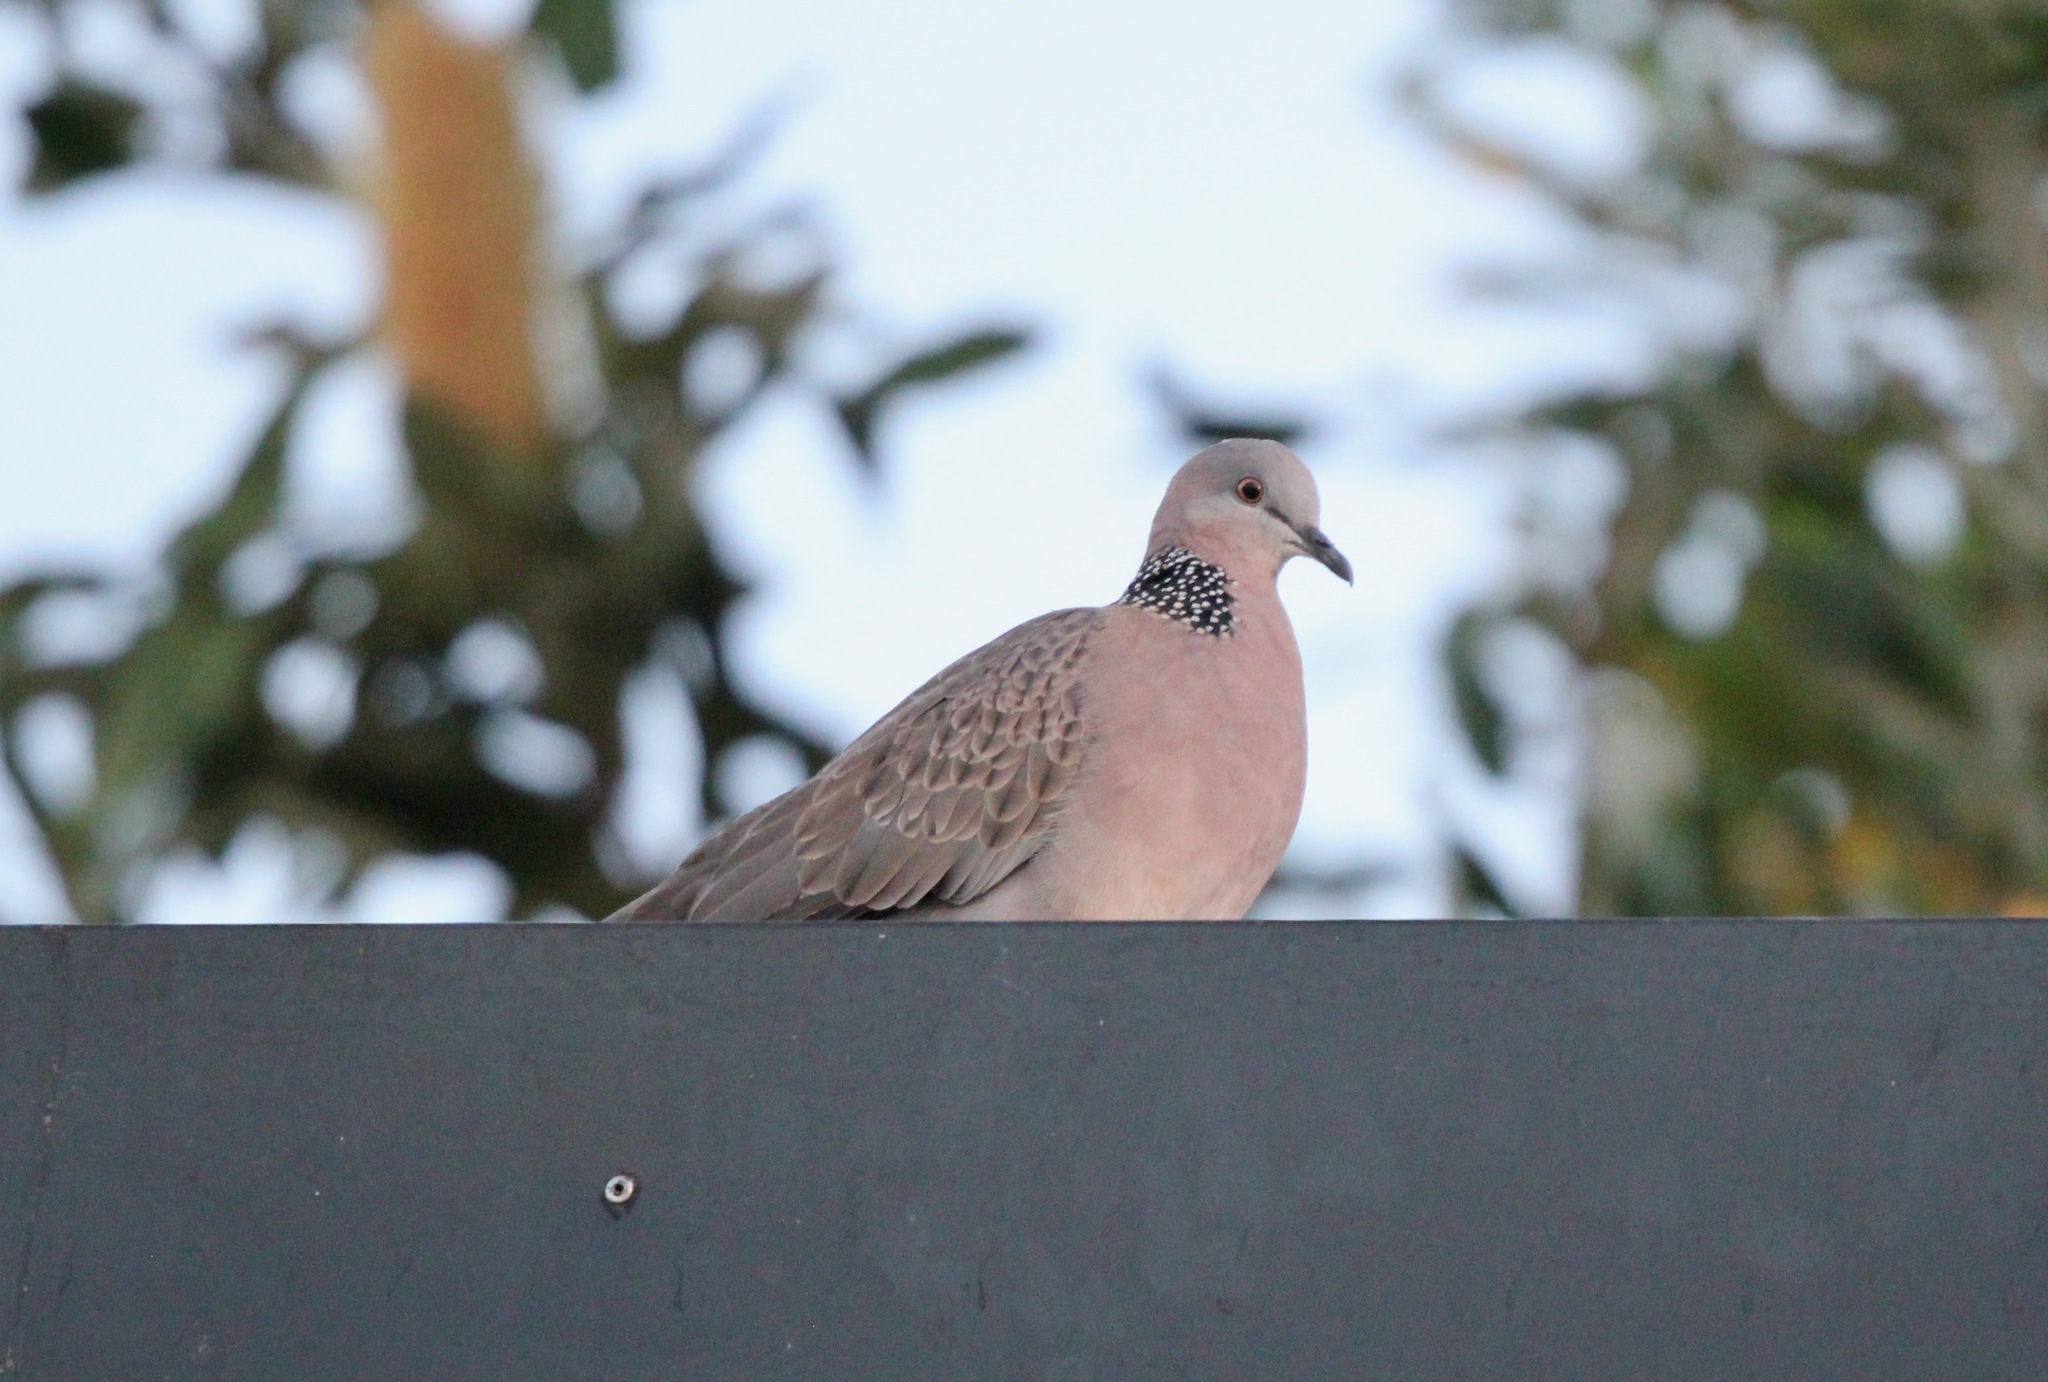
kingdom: Animalia
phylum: Chordata
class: Aves
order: Columbiformes
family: Columbidae
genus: Spilopelia
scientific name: Spilopelia chinensis
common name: Spotted dove
